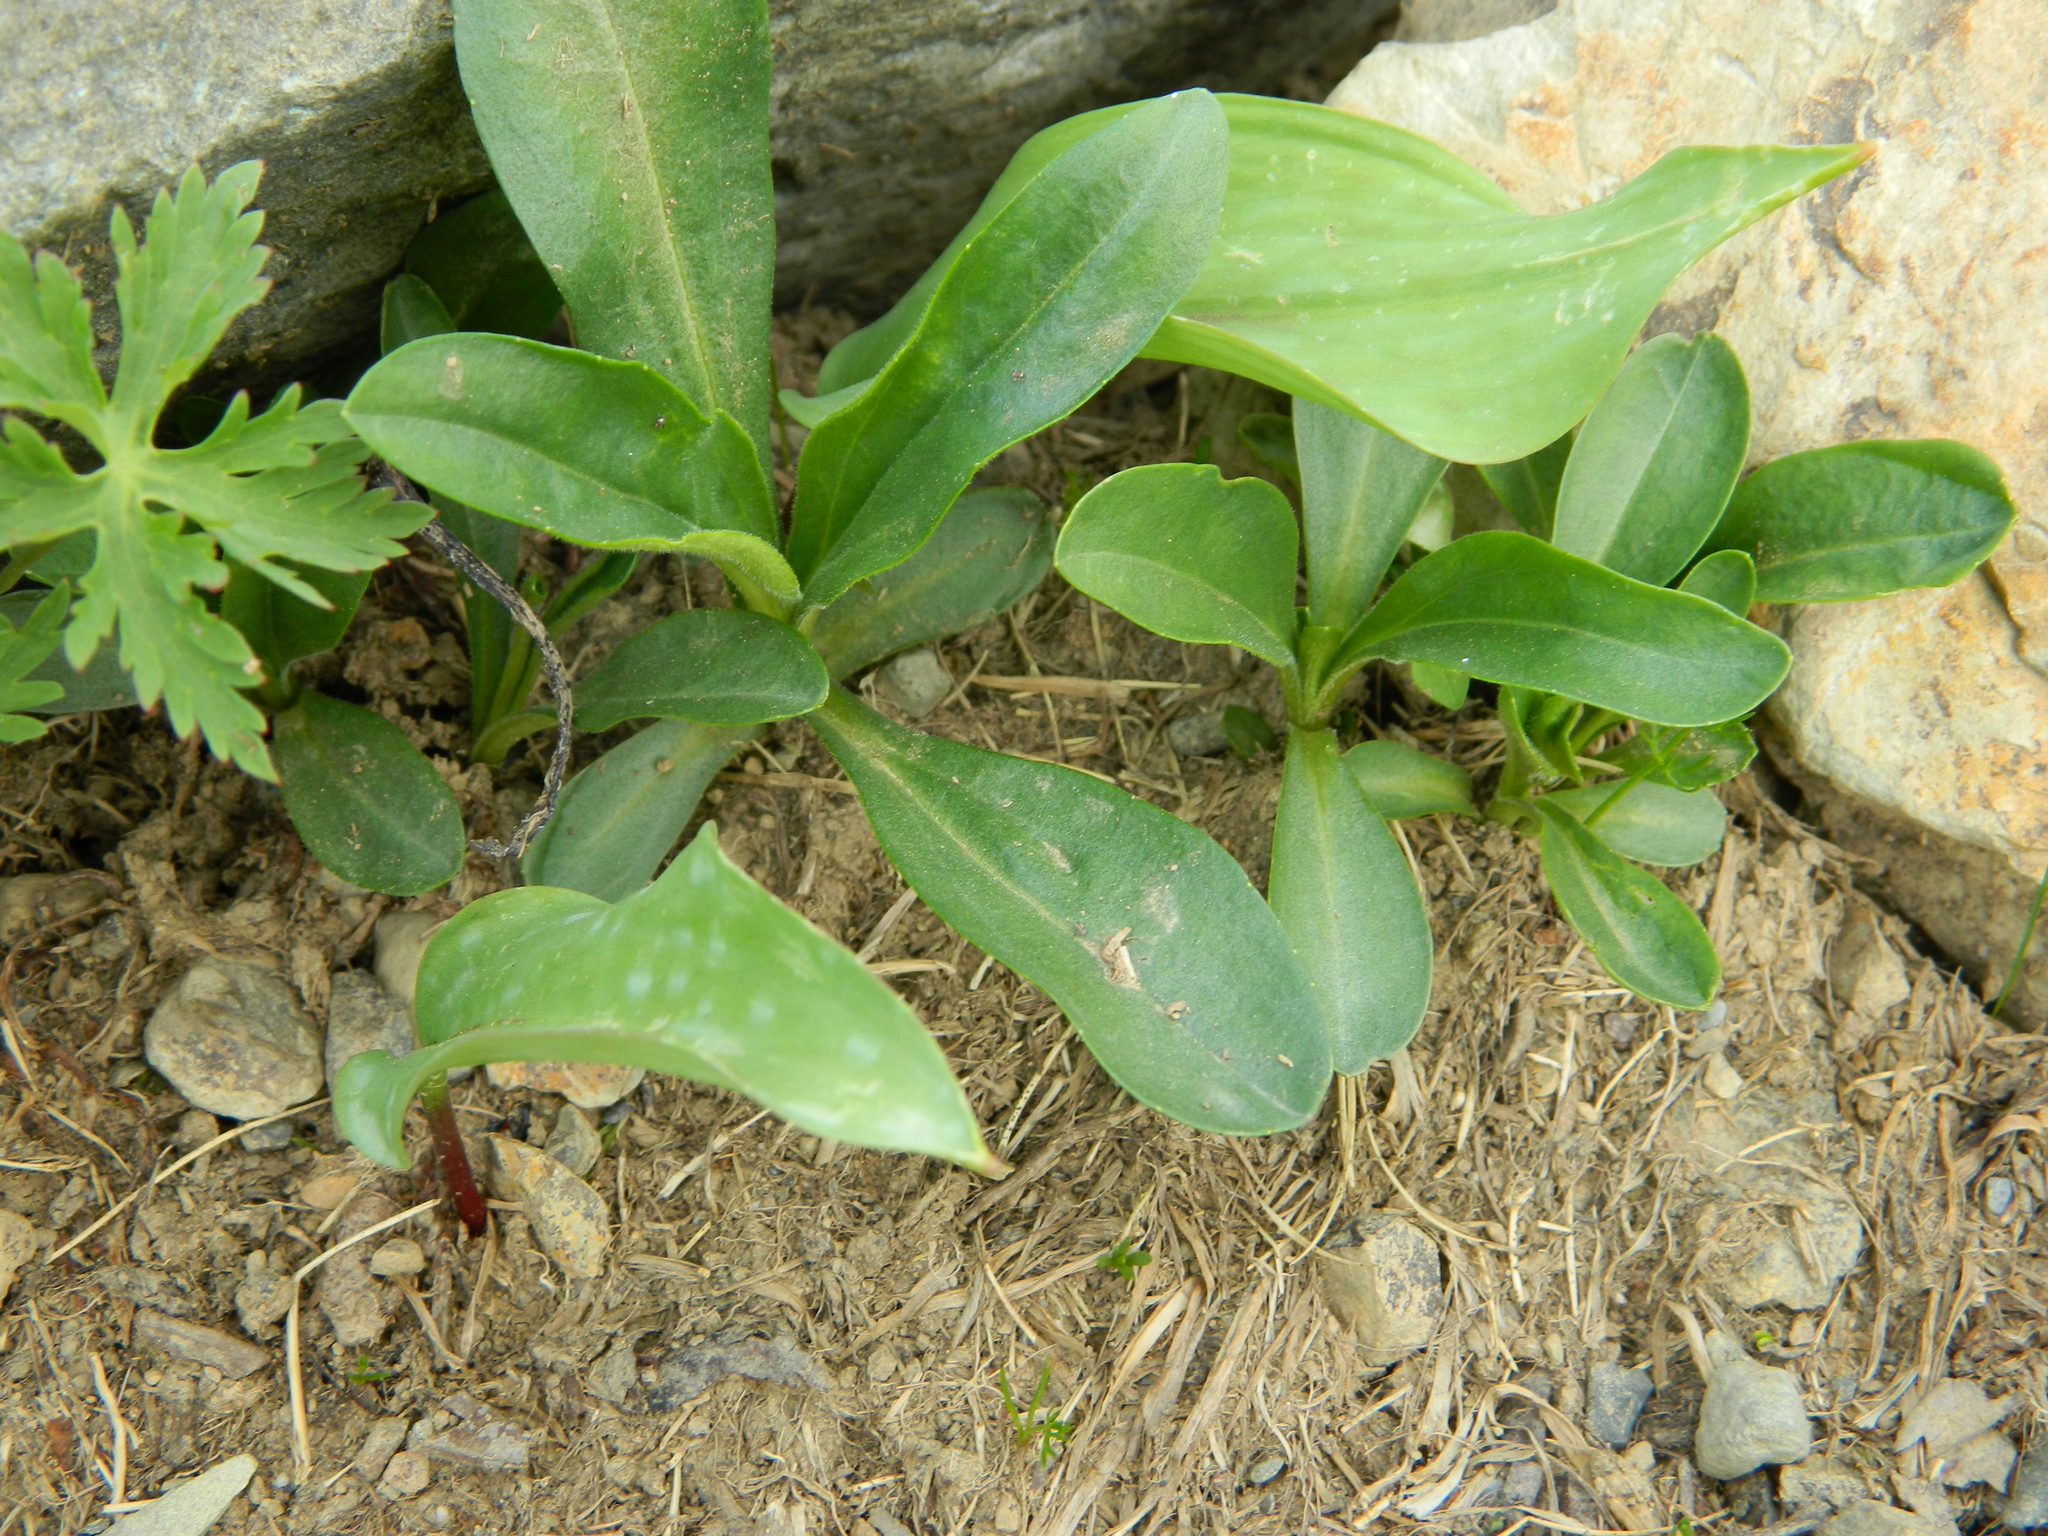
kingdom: Plantae
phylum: Tracheophyta
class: Magnoliopsida
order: Lamiales
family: Plantaginaceae
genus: Veronica
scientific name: Veronica gentianoides
